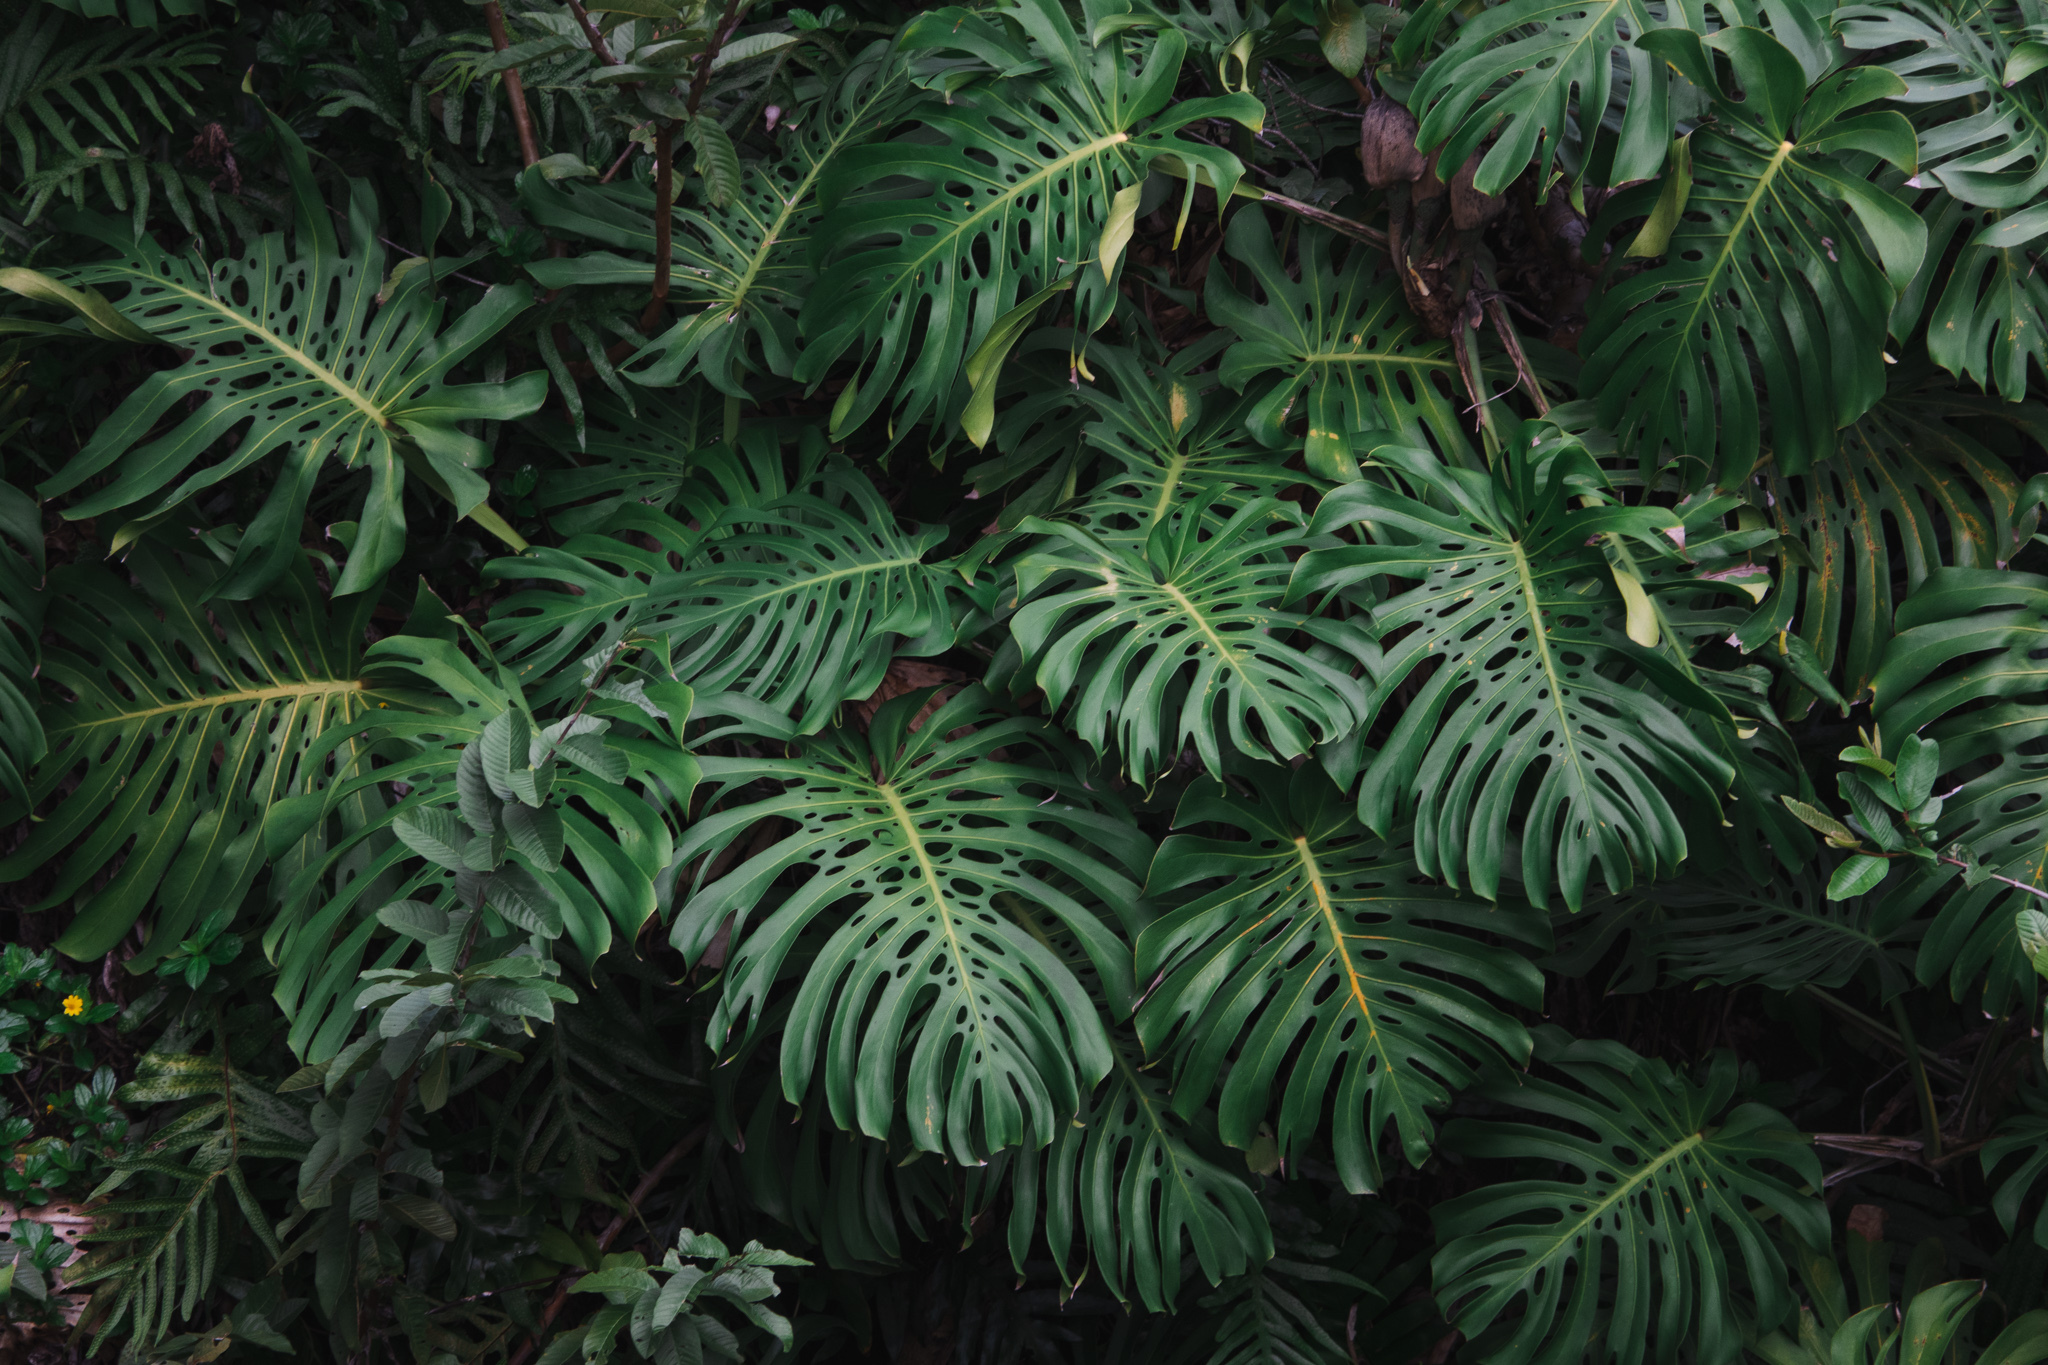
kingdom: Plantae
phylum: Tracheophyta
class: Liliopsida
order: Alismatales
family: Araceae
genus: Monstera
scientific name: Monstera deliciosa
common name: Cut-leaf-philodendron
